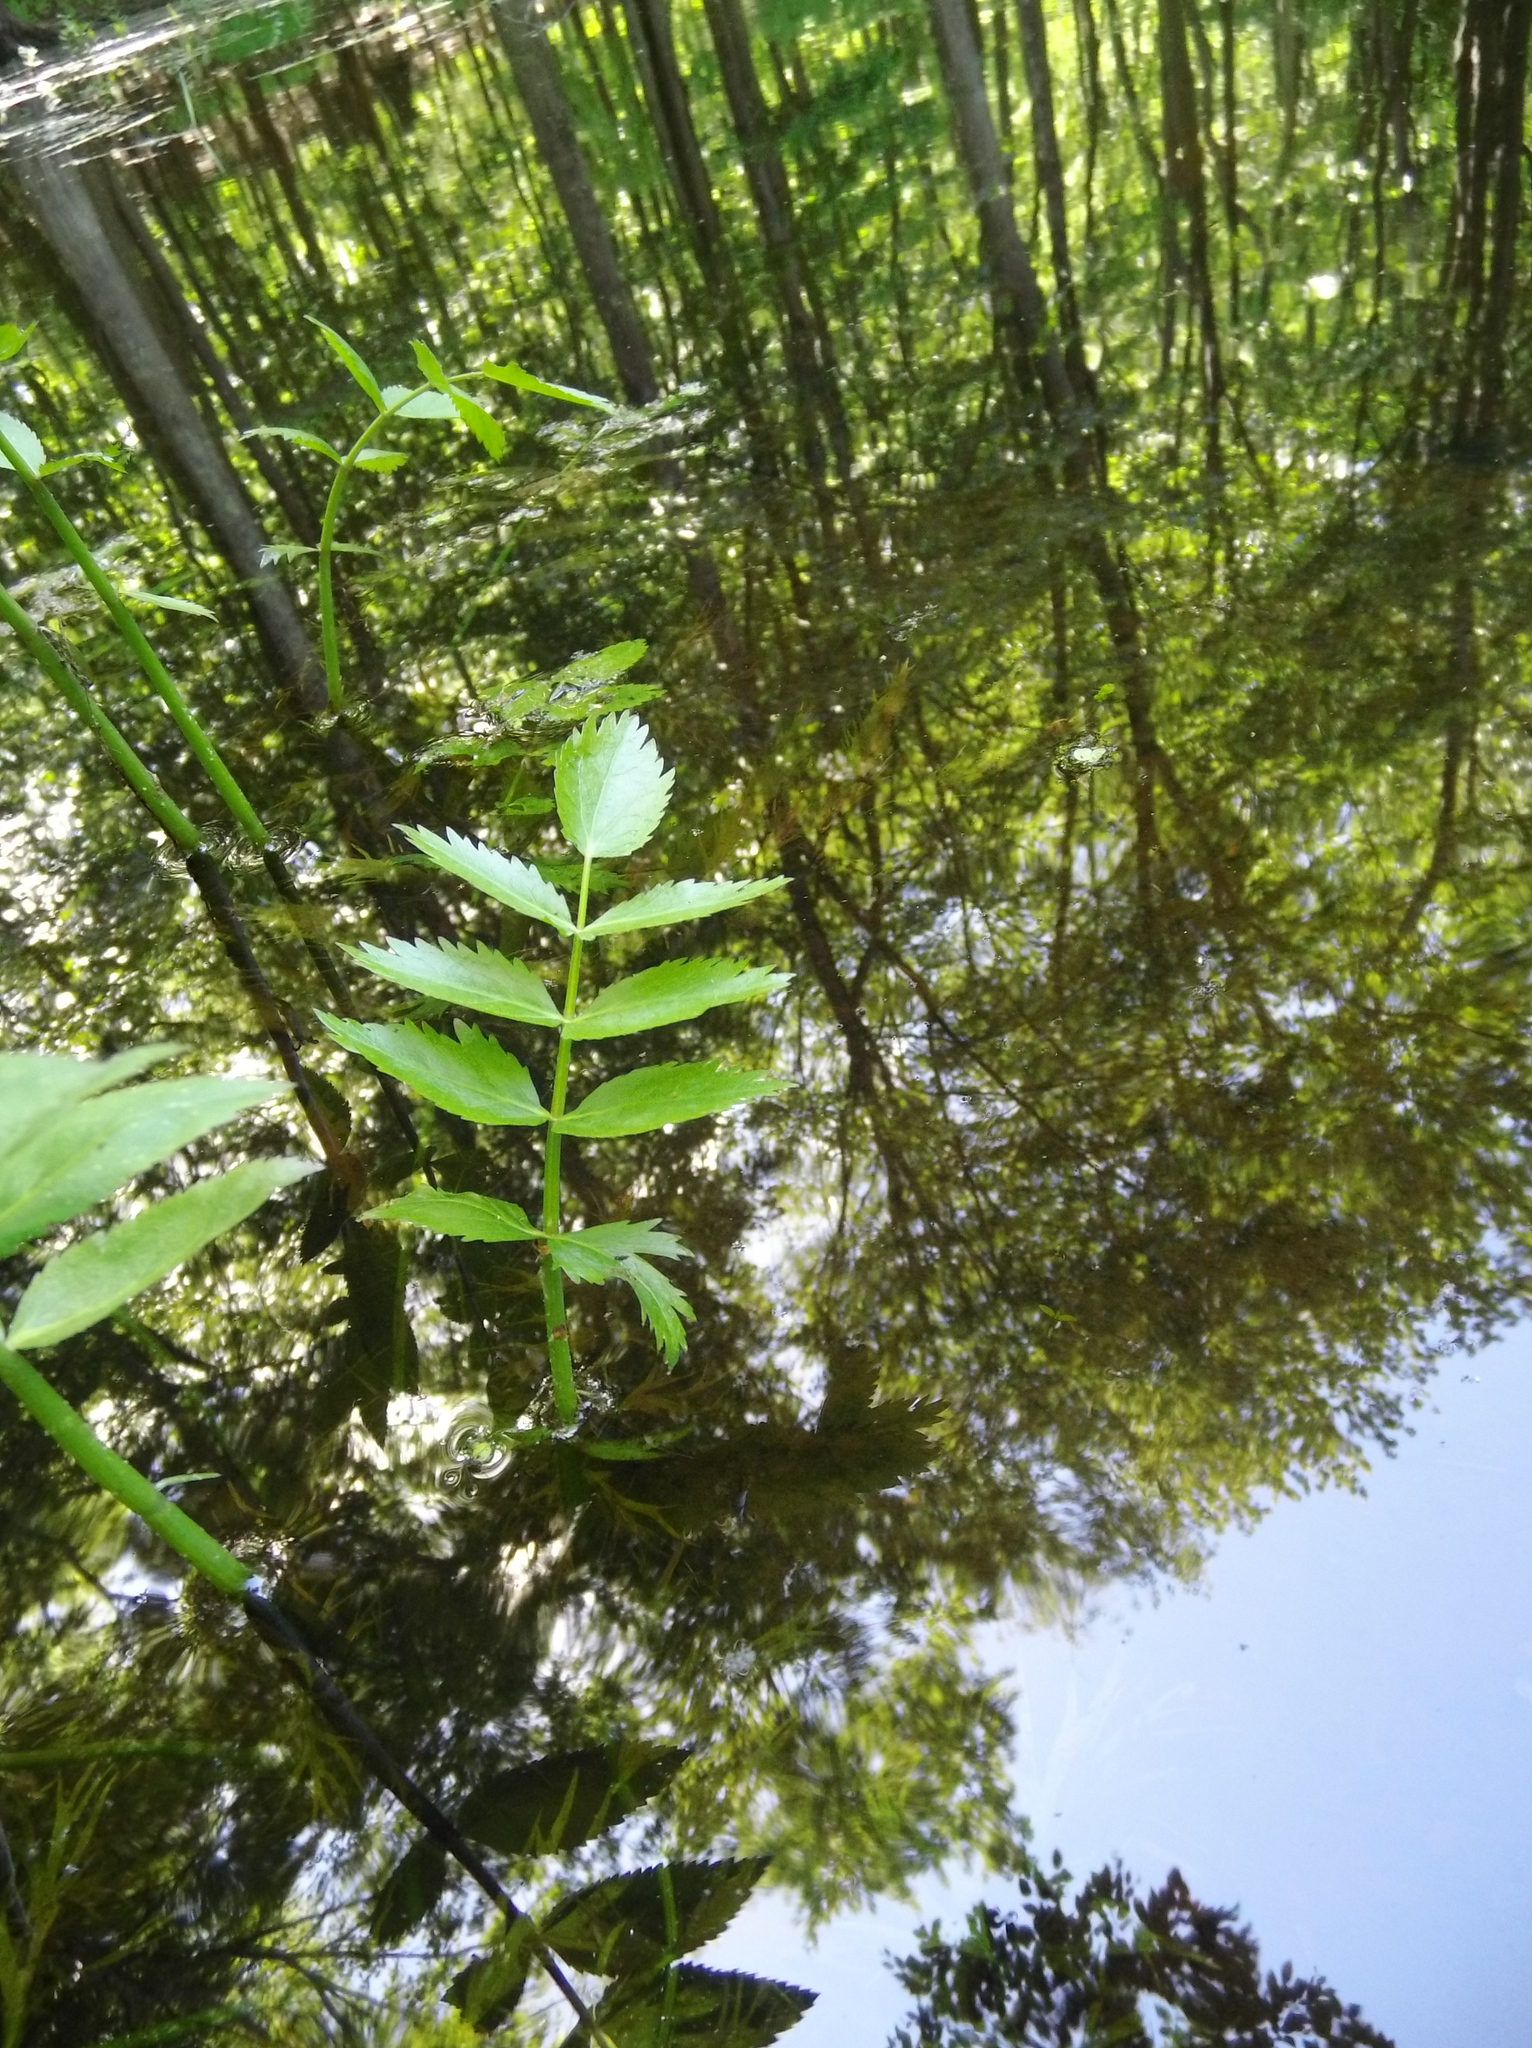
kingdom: Plantae
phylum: Tracheophyta
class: Magnoliopsida
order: Apiales
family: Apiaceae
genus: Sium
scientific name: Sium suave
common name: Hemlock water-parsnip
